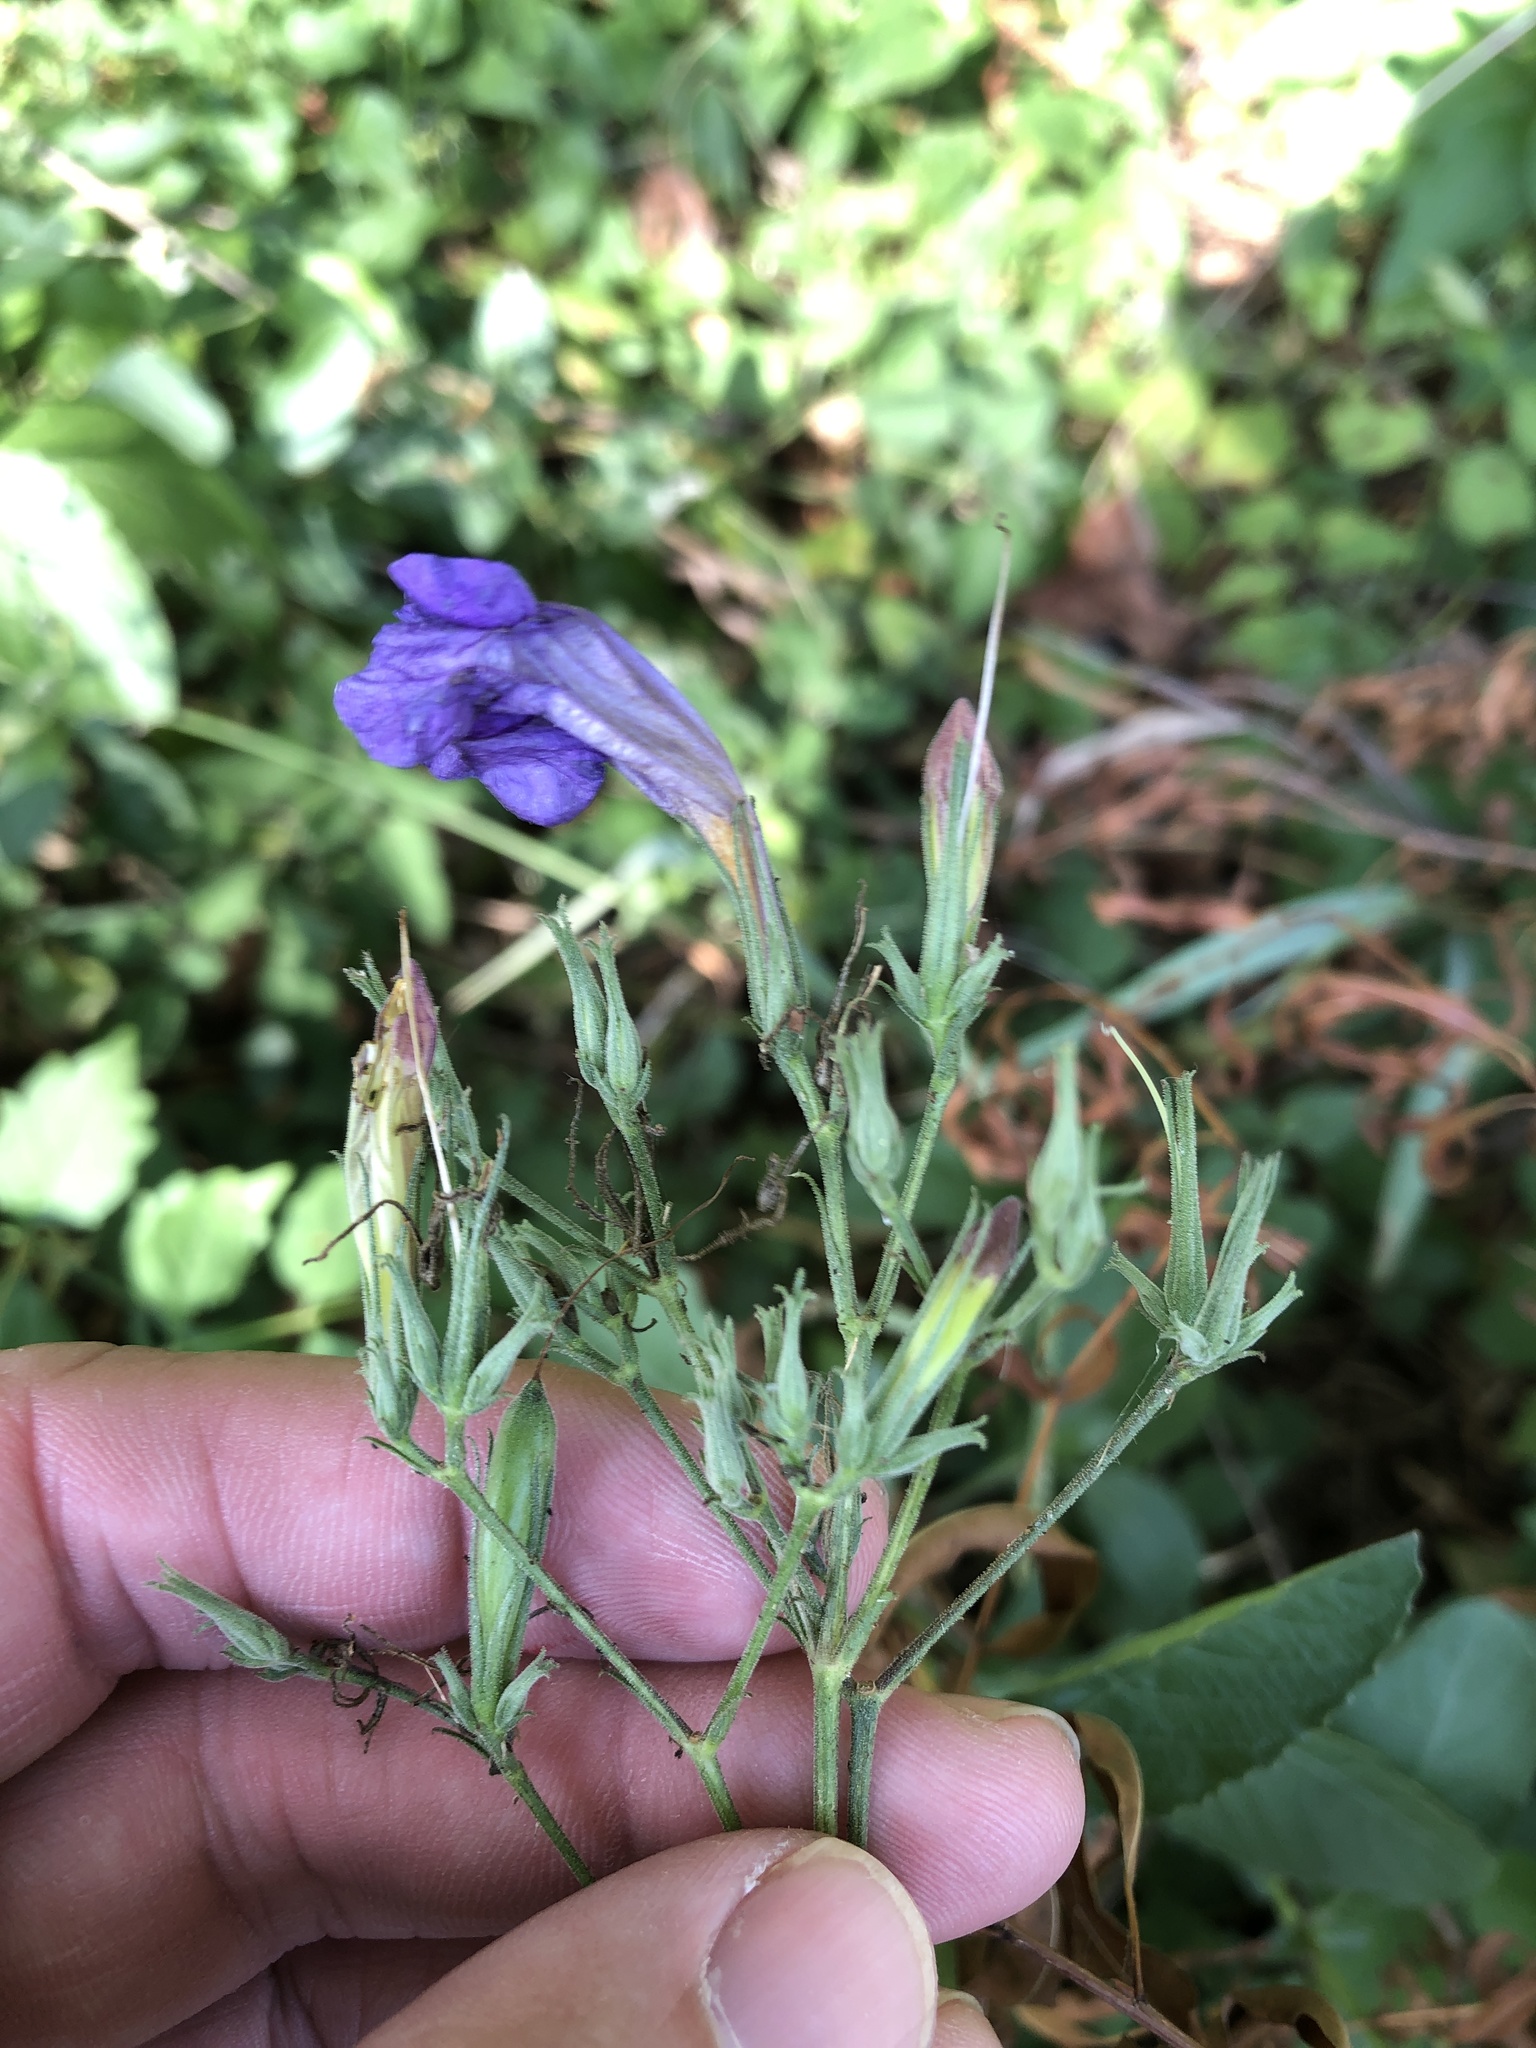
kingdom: Plantae
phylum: Tracheophyta
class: Magnoliopsida
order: Lamiales
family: Acanthaceae
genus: Ruellia
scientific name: Ruellia ciliatiflora
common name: Hairyflower wild petunia
